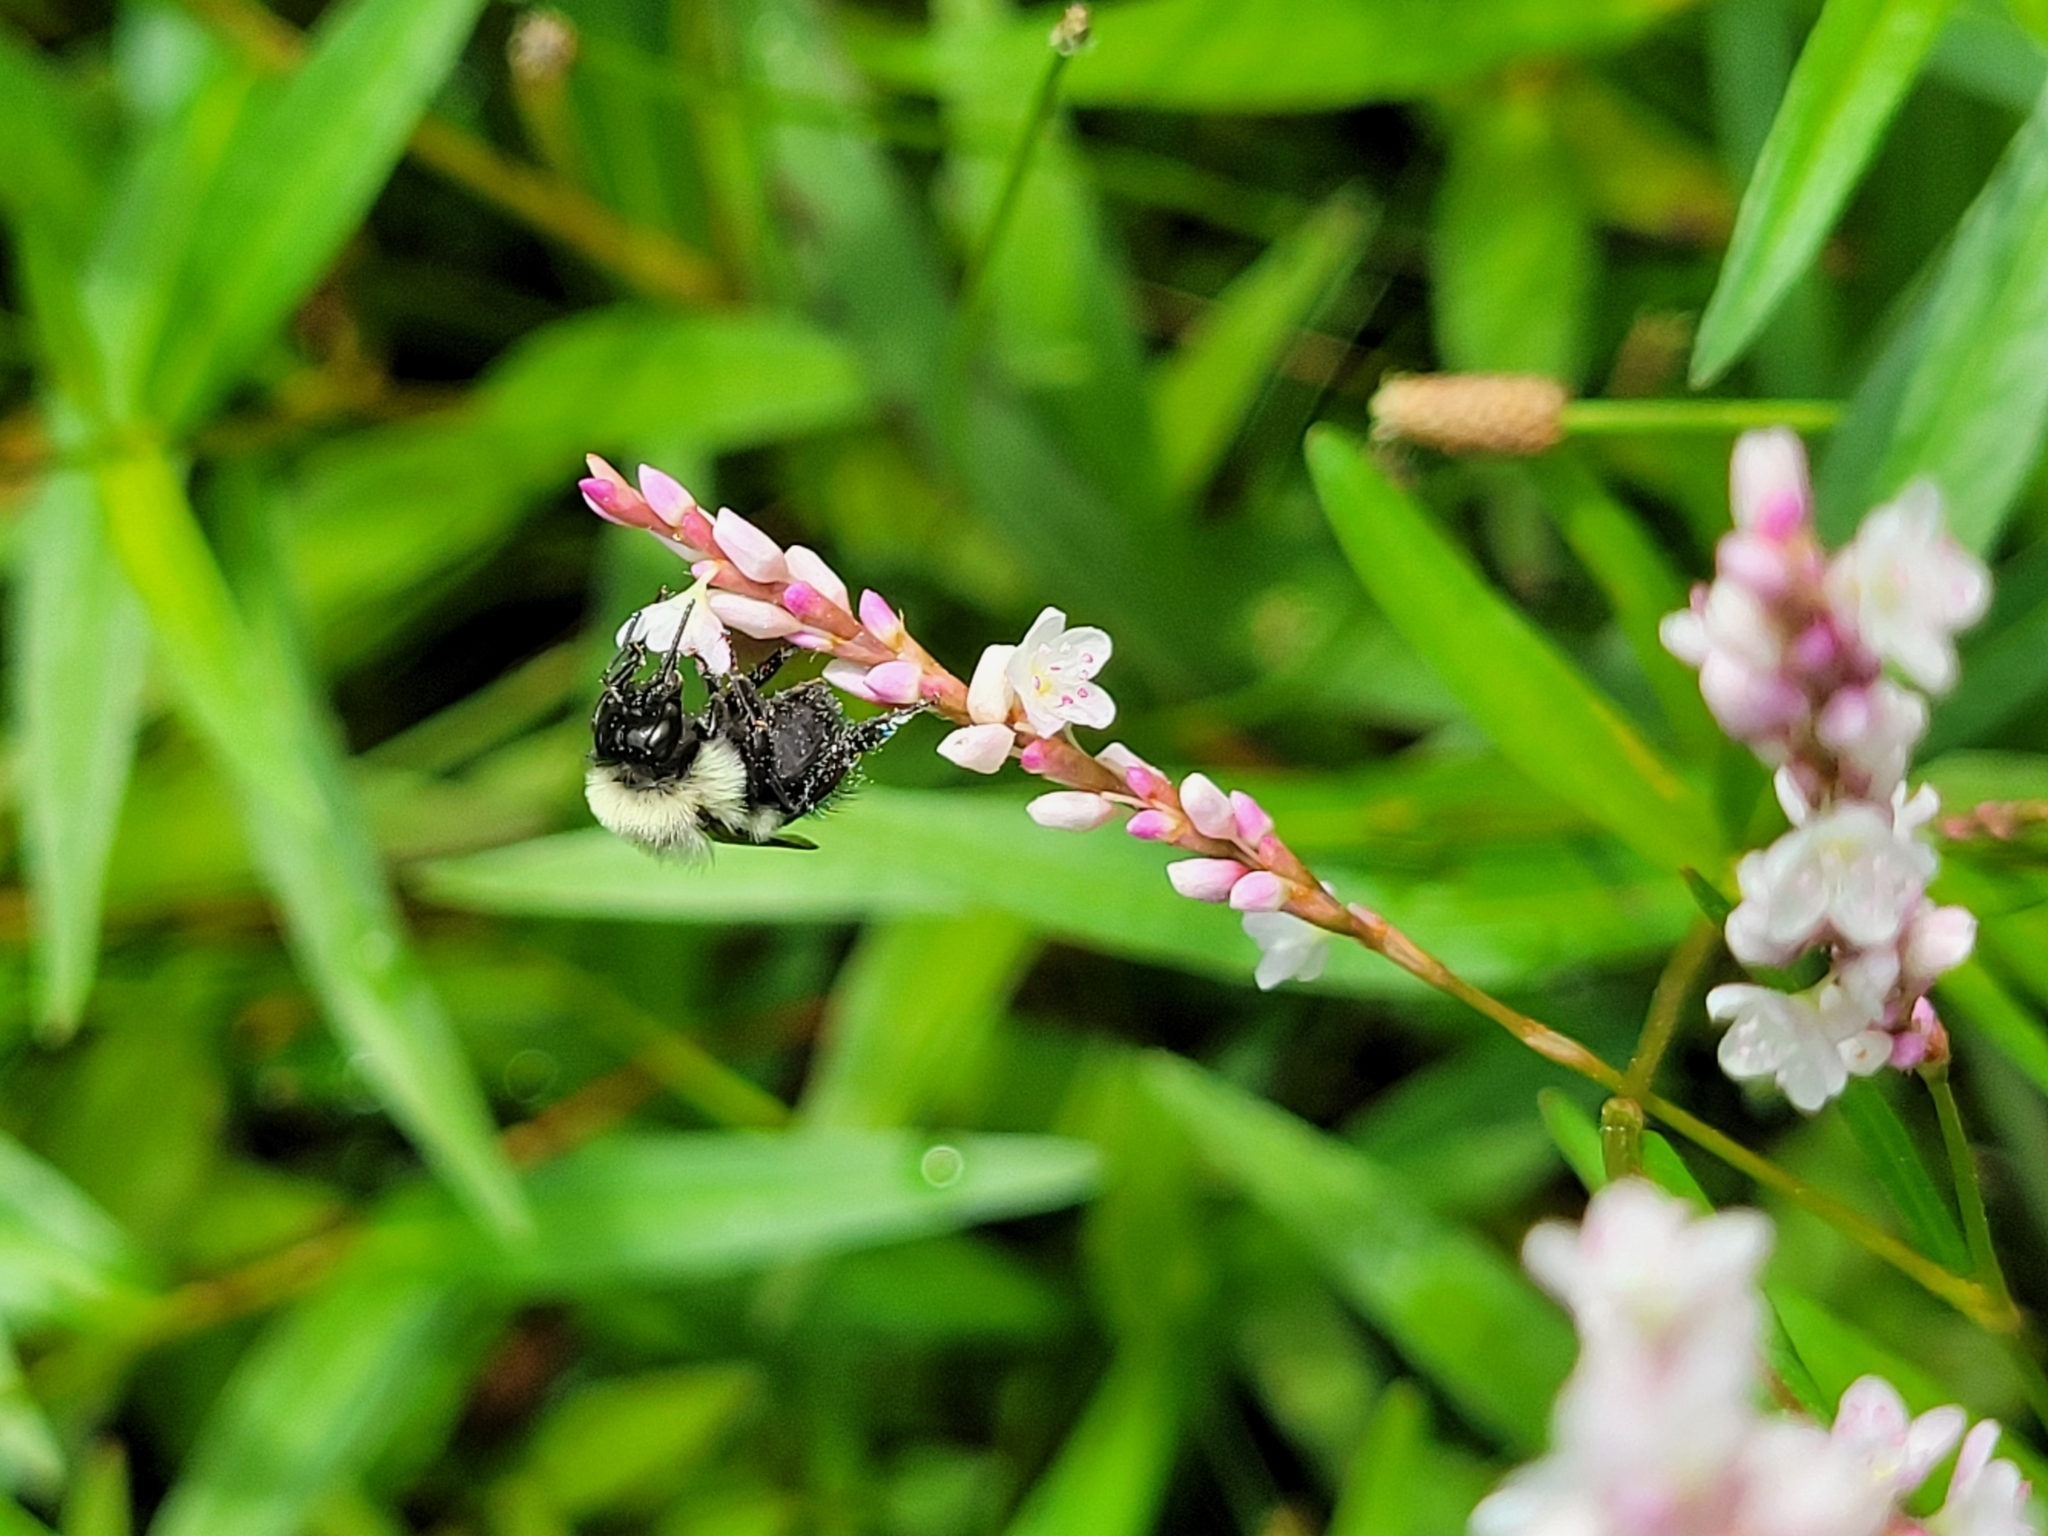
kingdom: Animalia
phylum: Arthropoda
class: Insecta
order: Hymenoptera
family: Apidae
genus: Bombus
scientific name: Bombus impatiens
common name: Common eastern bumble bee
